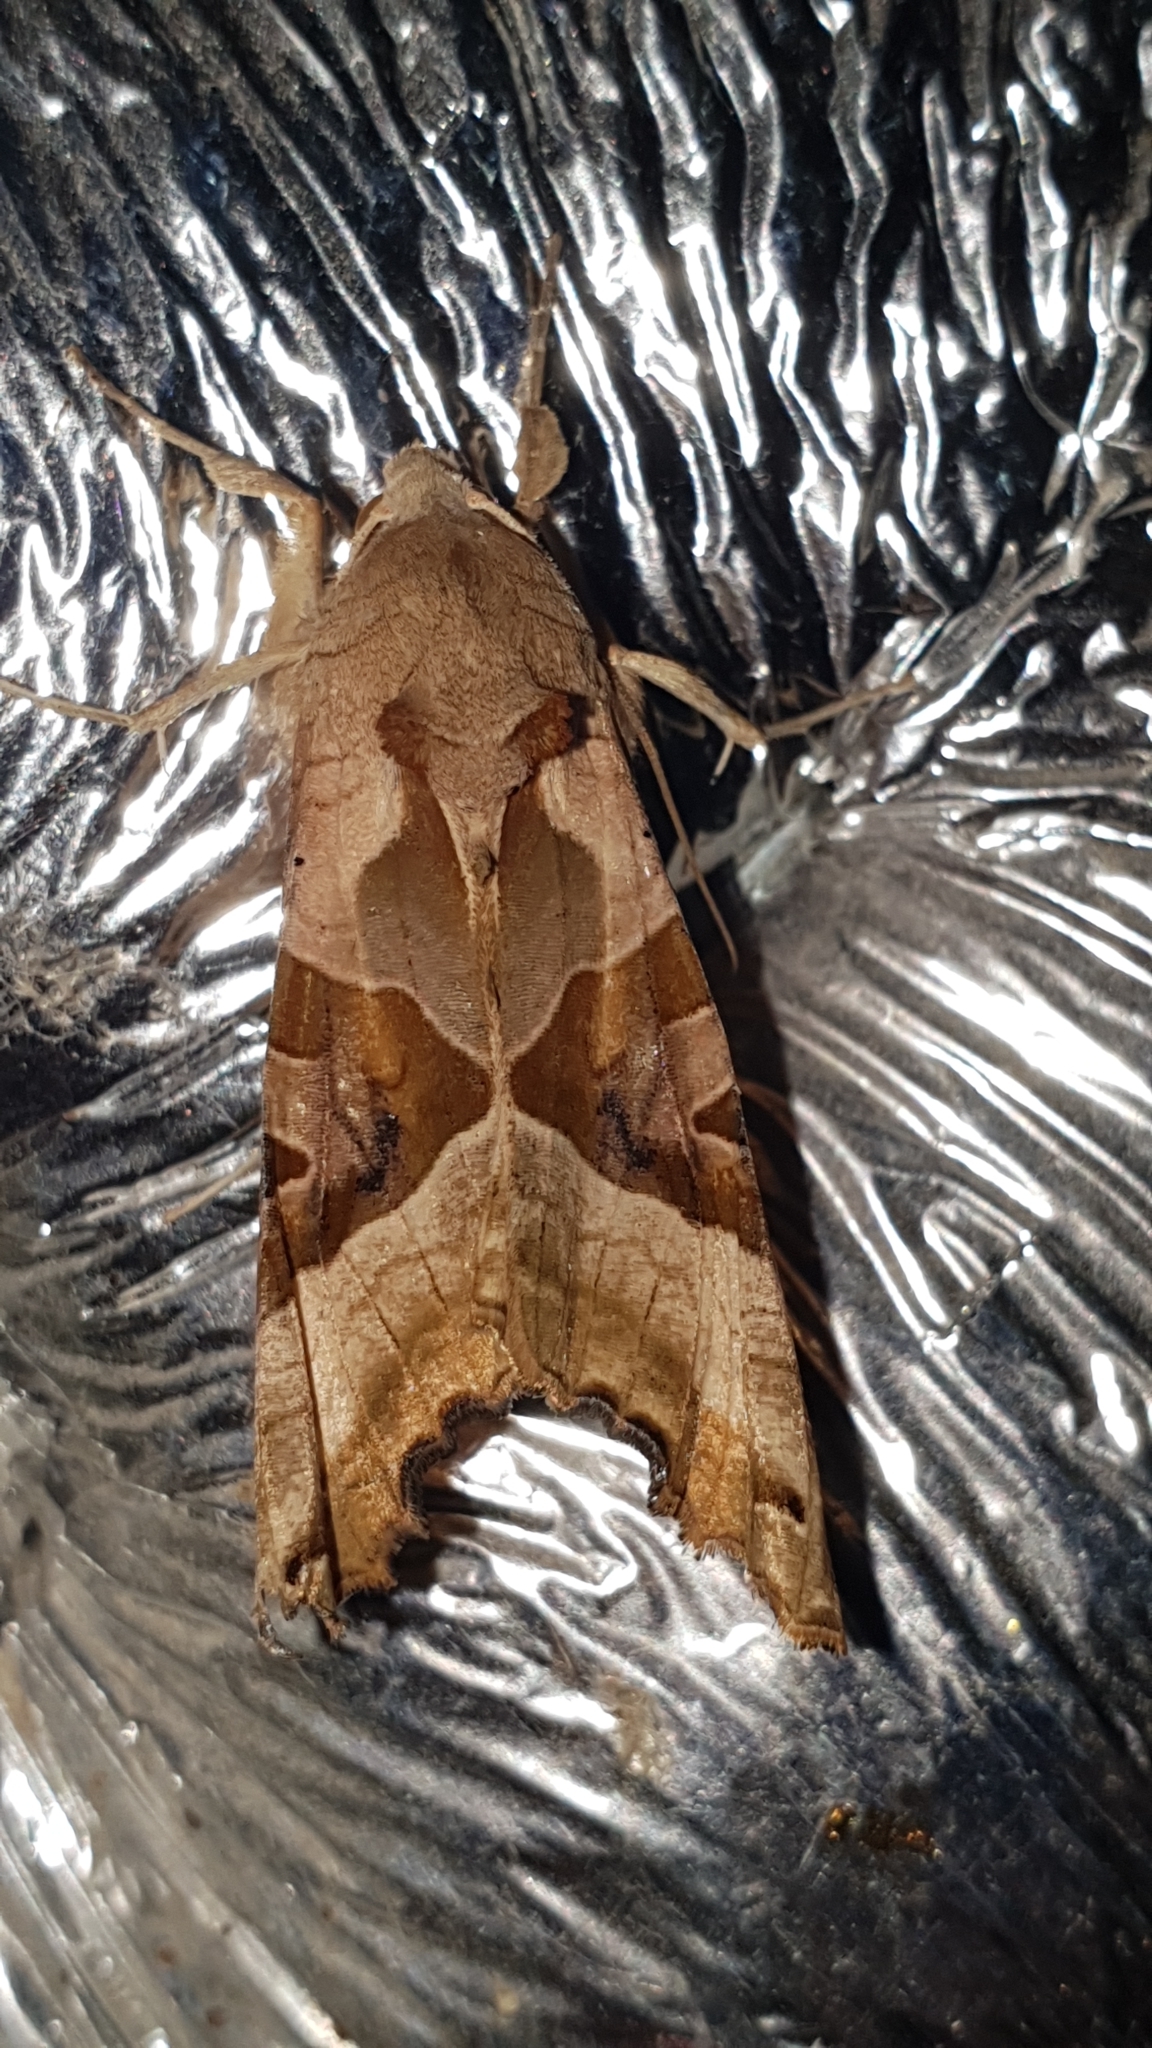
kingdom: Animalia
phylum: Arthropoda
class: Insecta
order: Lepidoptera
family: Noctuidae
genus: Phlogophora
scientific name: Phlogophora meticulosa
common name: Angle shades
